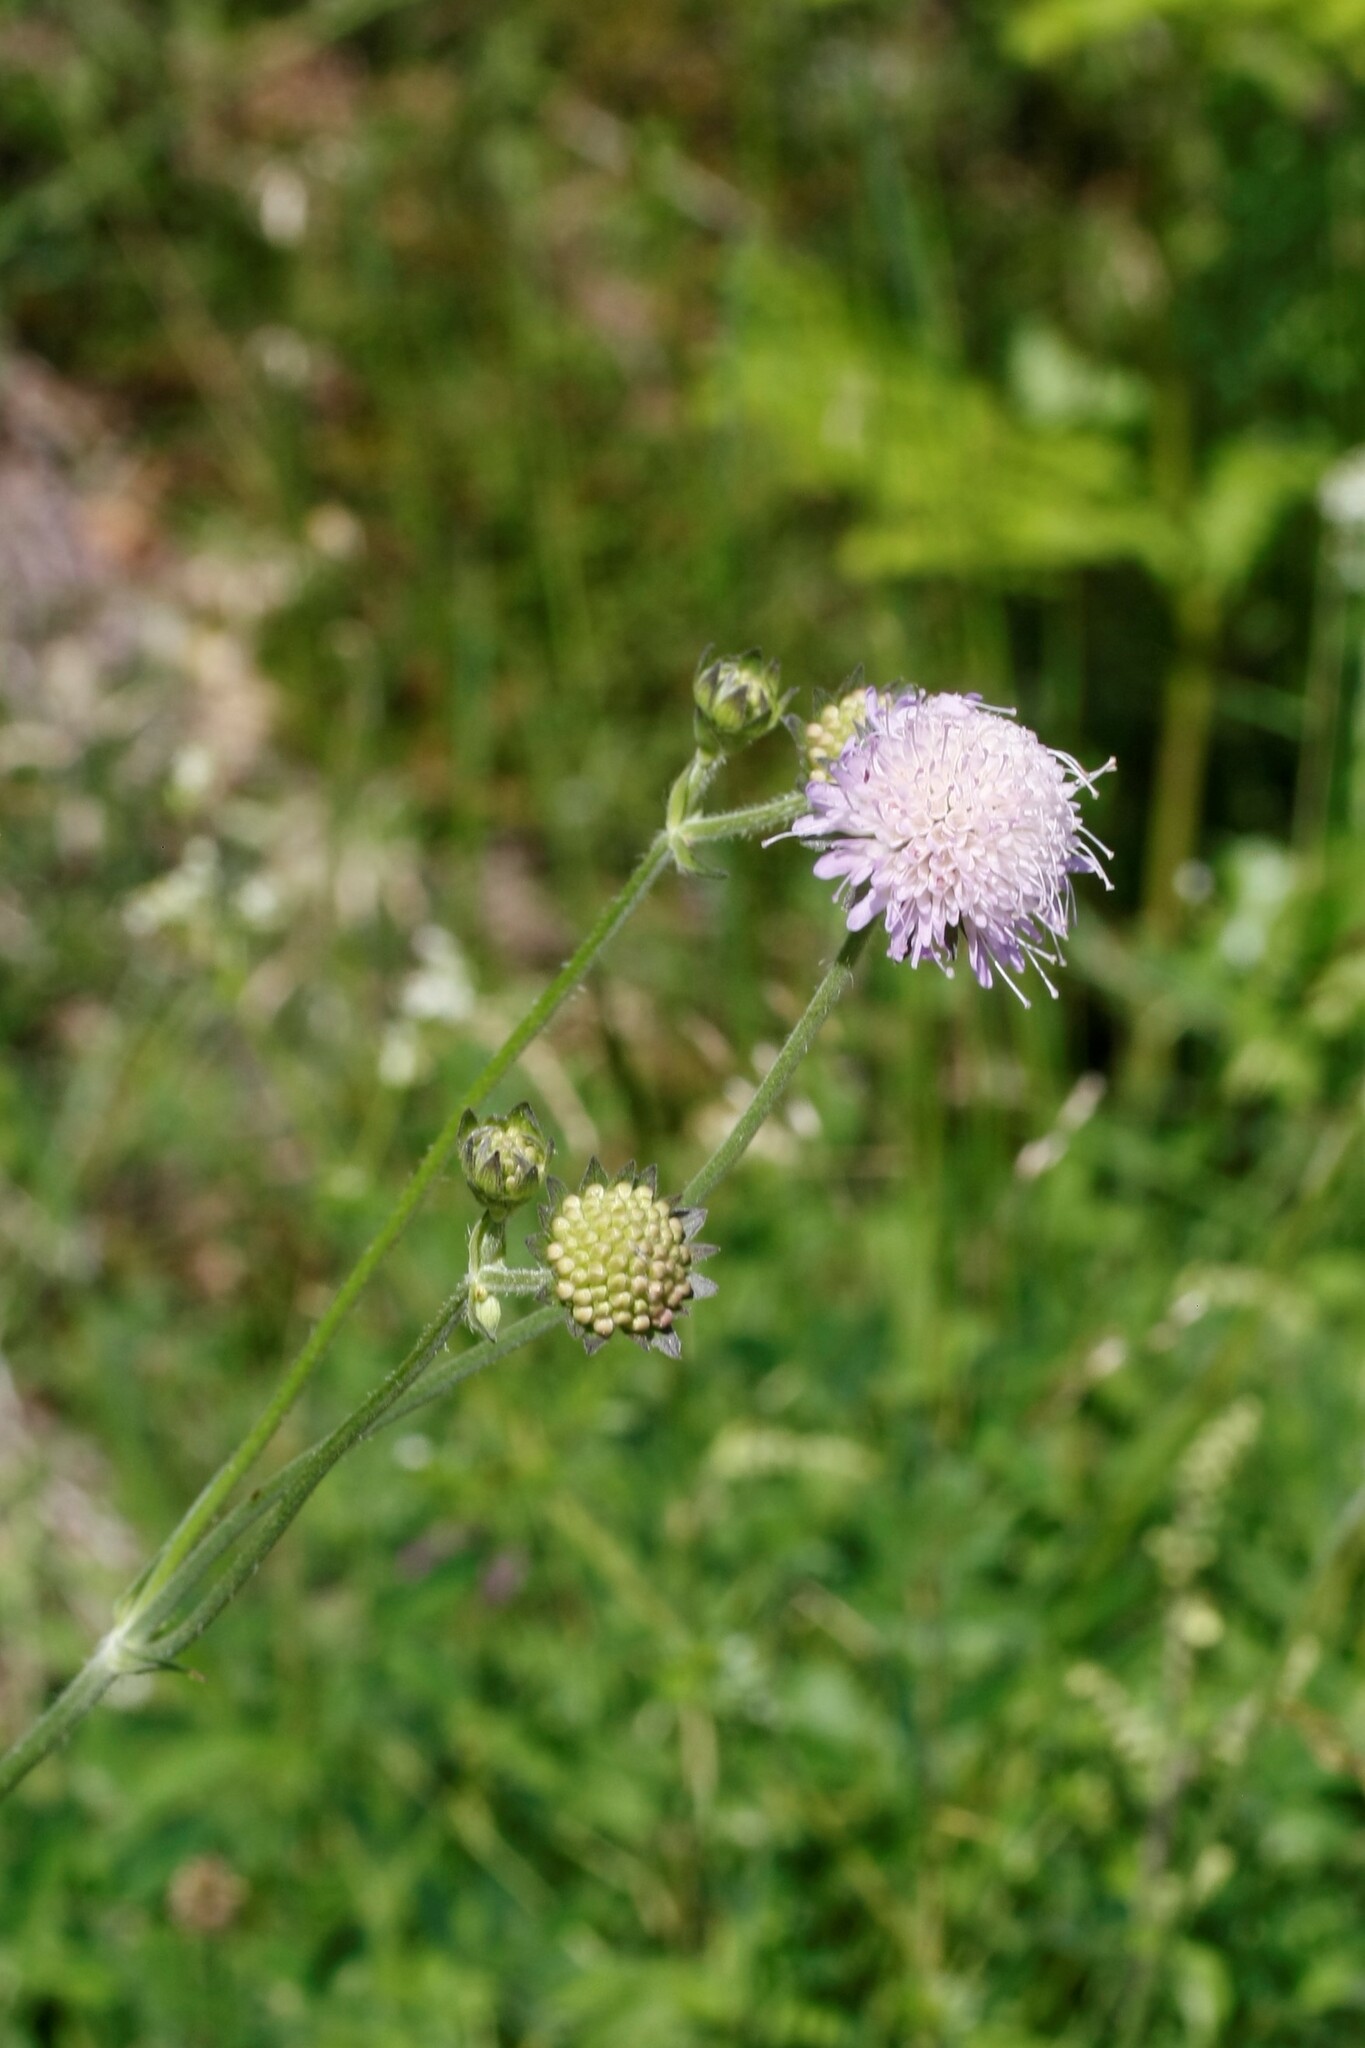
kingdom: Plantae
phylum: Tracheophyta
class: Magnoliopsida
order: Dipsacales
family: Caprifoliaceae
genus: Knautia
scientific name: Knautia arvensis
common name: Field scabiosa
